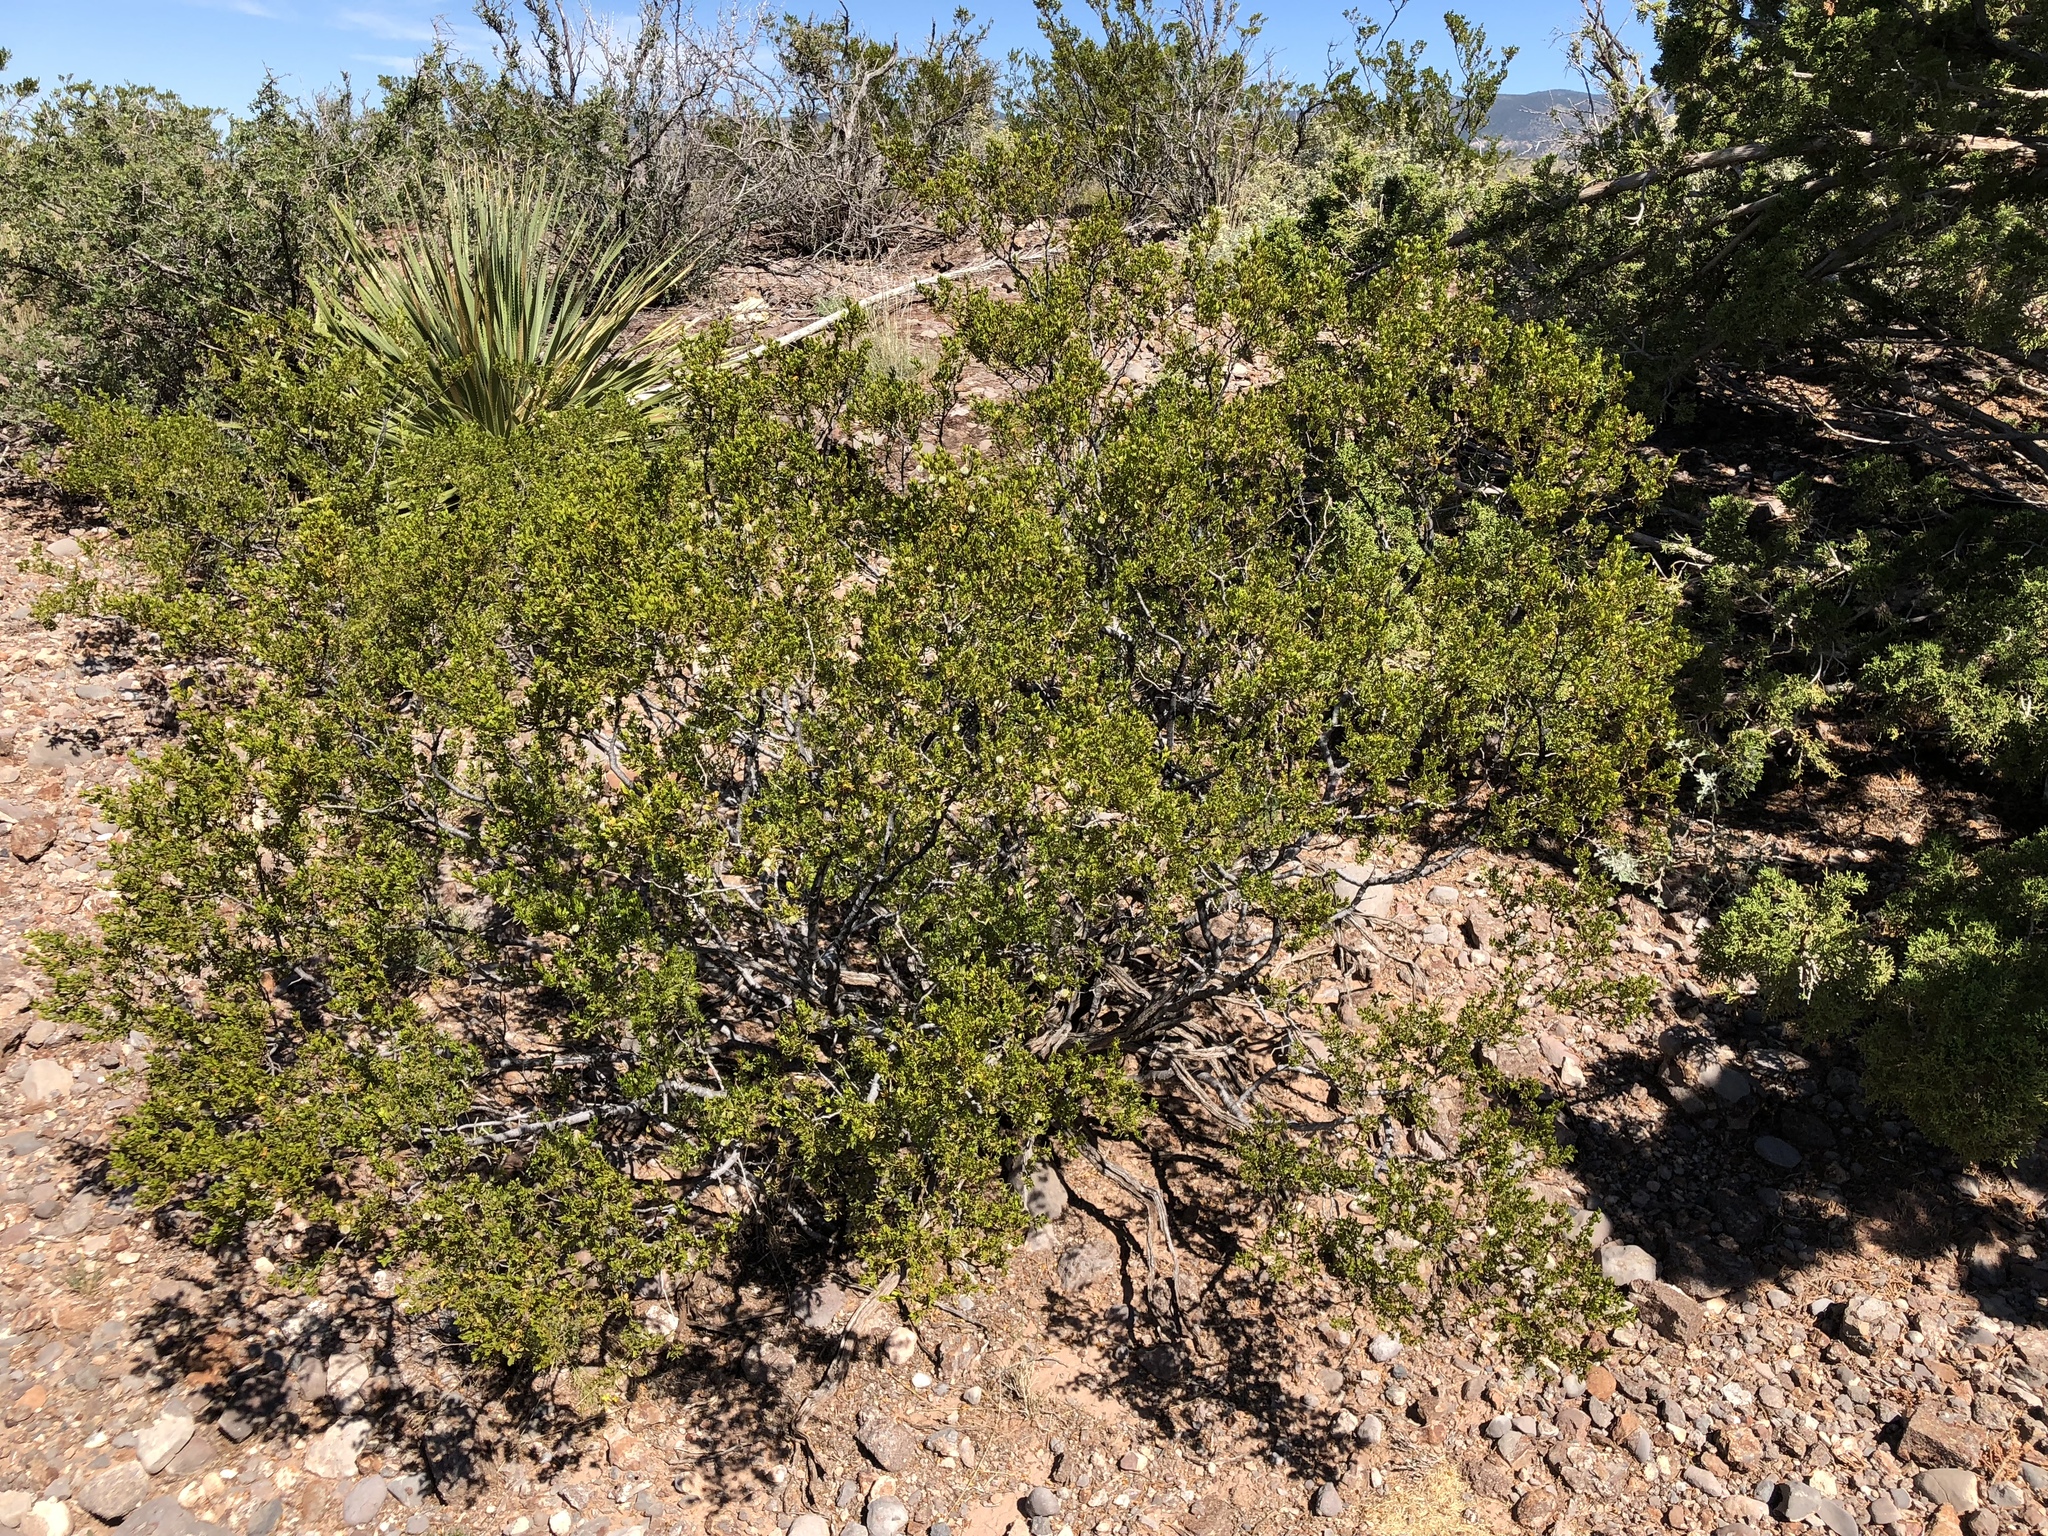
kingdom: Plantae
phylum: Tracheophyta
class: Magnoliopsida
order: Zygophyllales
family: Zygophyllaceae
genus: Larrea
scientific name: Larrea tridentata
